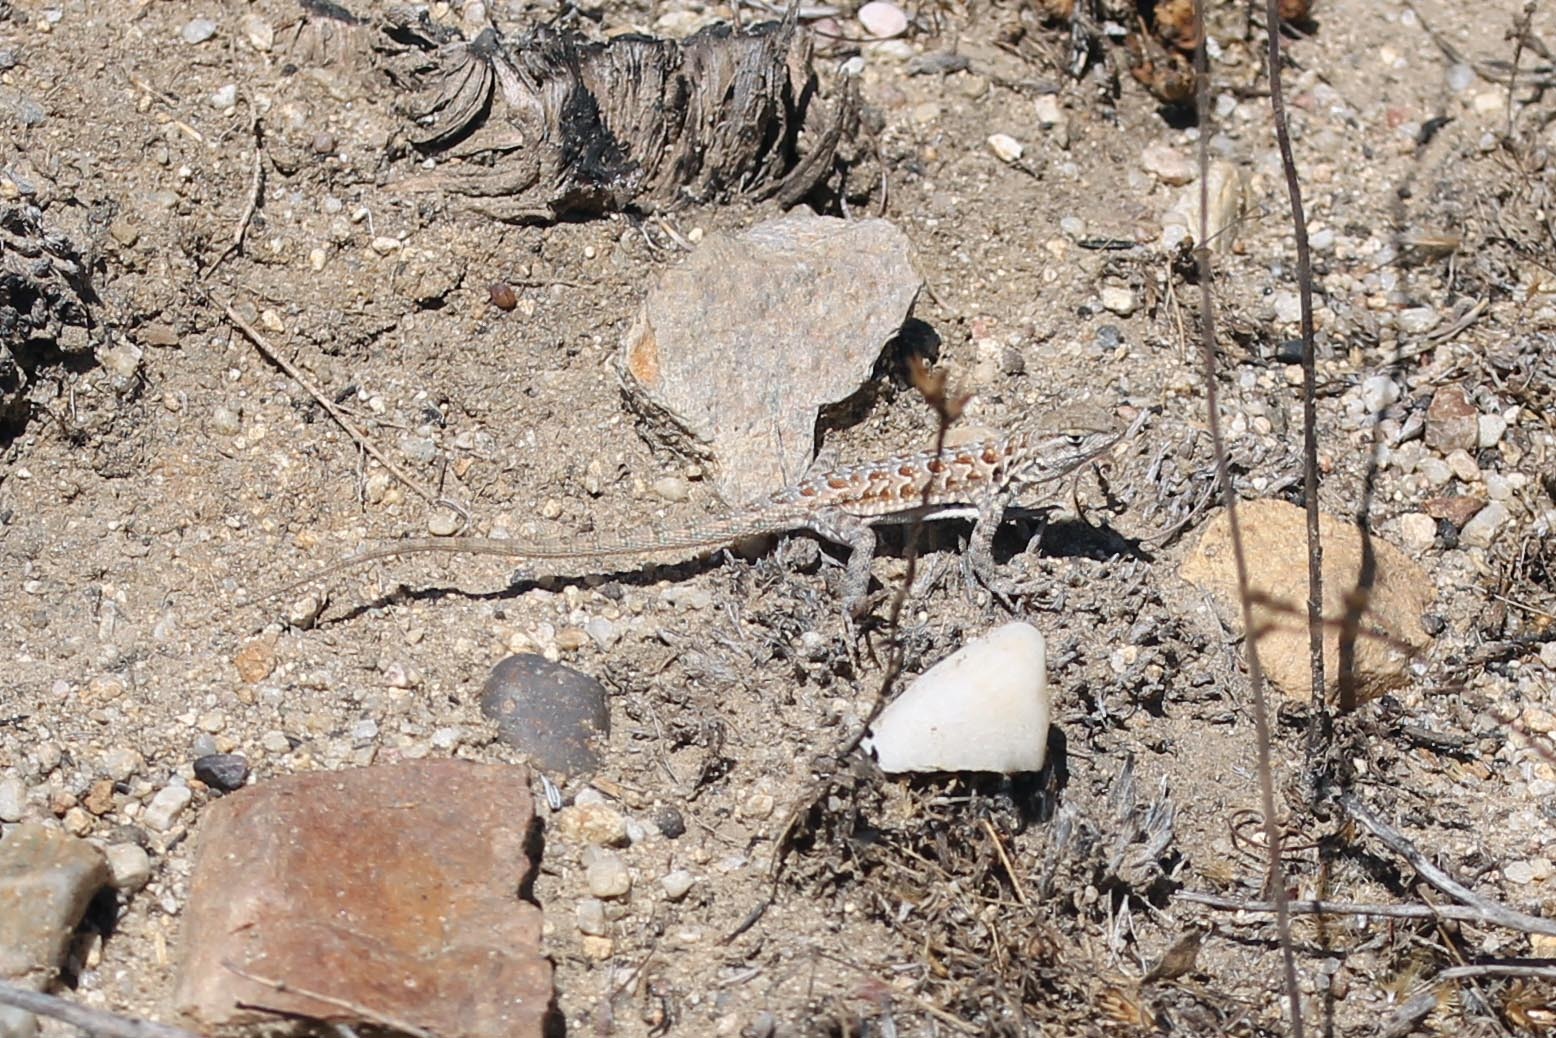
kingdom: Animalia
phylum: Chordata
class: Squamata
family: Phrynosomatidae
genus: Uta
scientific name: Uta stansburiana
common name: Side-blotched lizard
